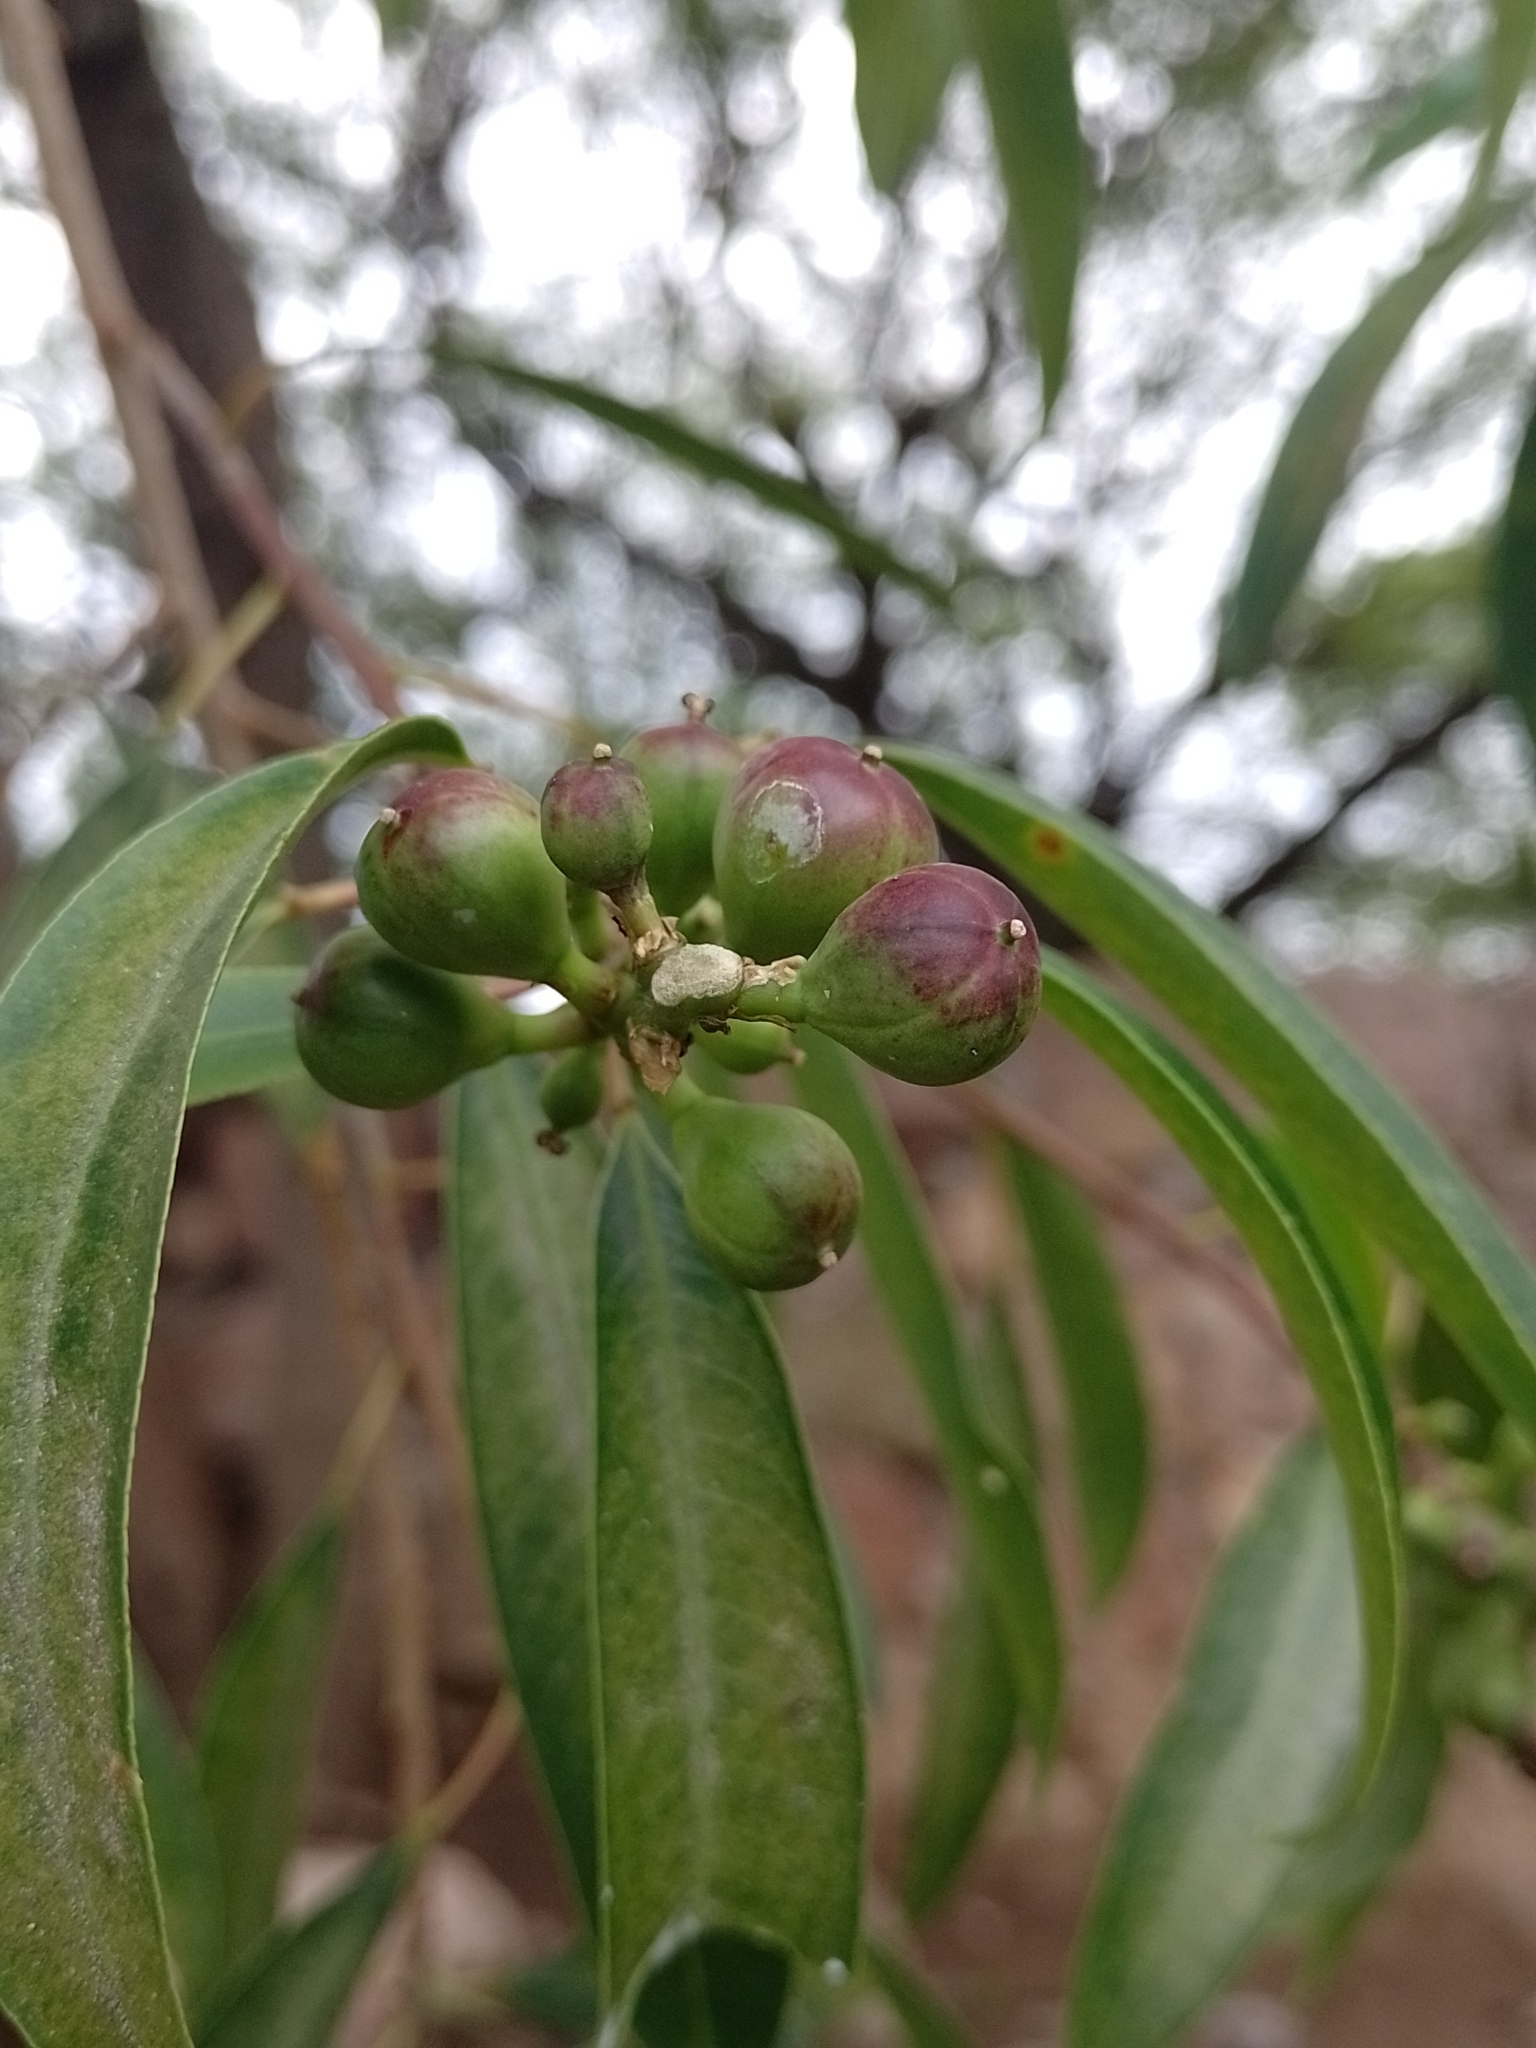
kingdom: Plantae
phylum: Tracheophyta
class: Magnoliopsida
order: Malpighiales
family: Euphorbiaceae
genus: Sapium
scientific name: Sapium haematospermum
